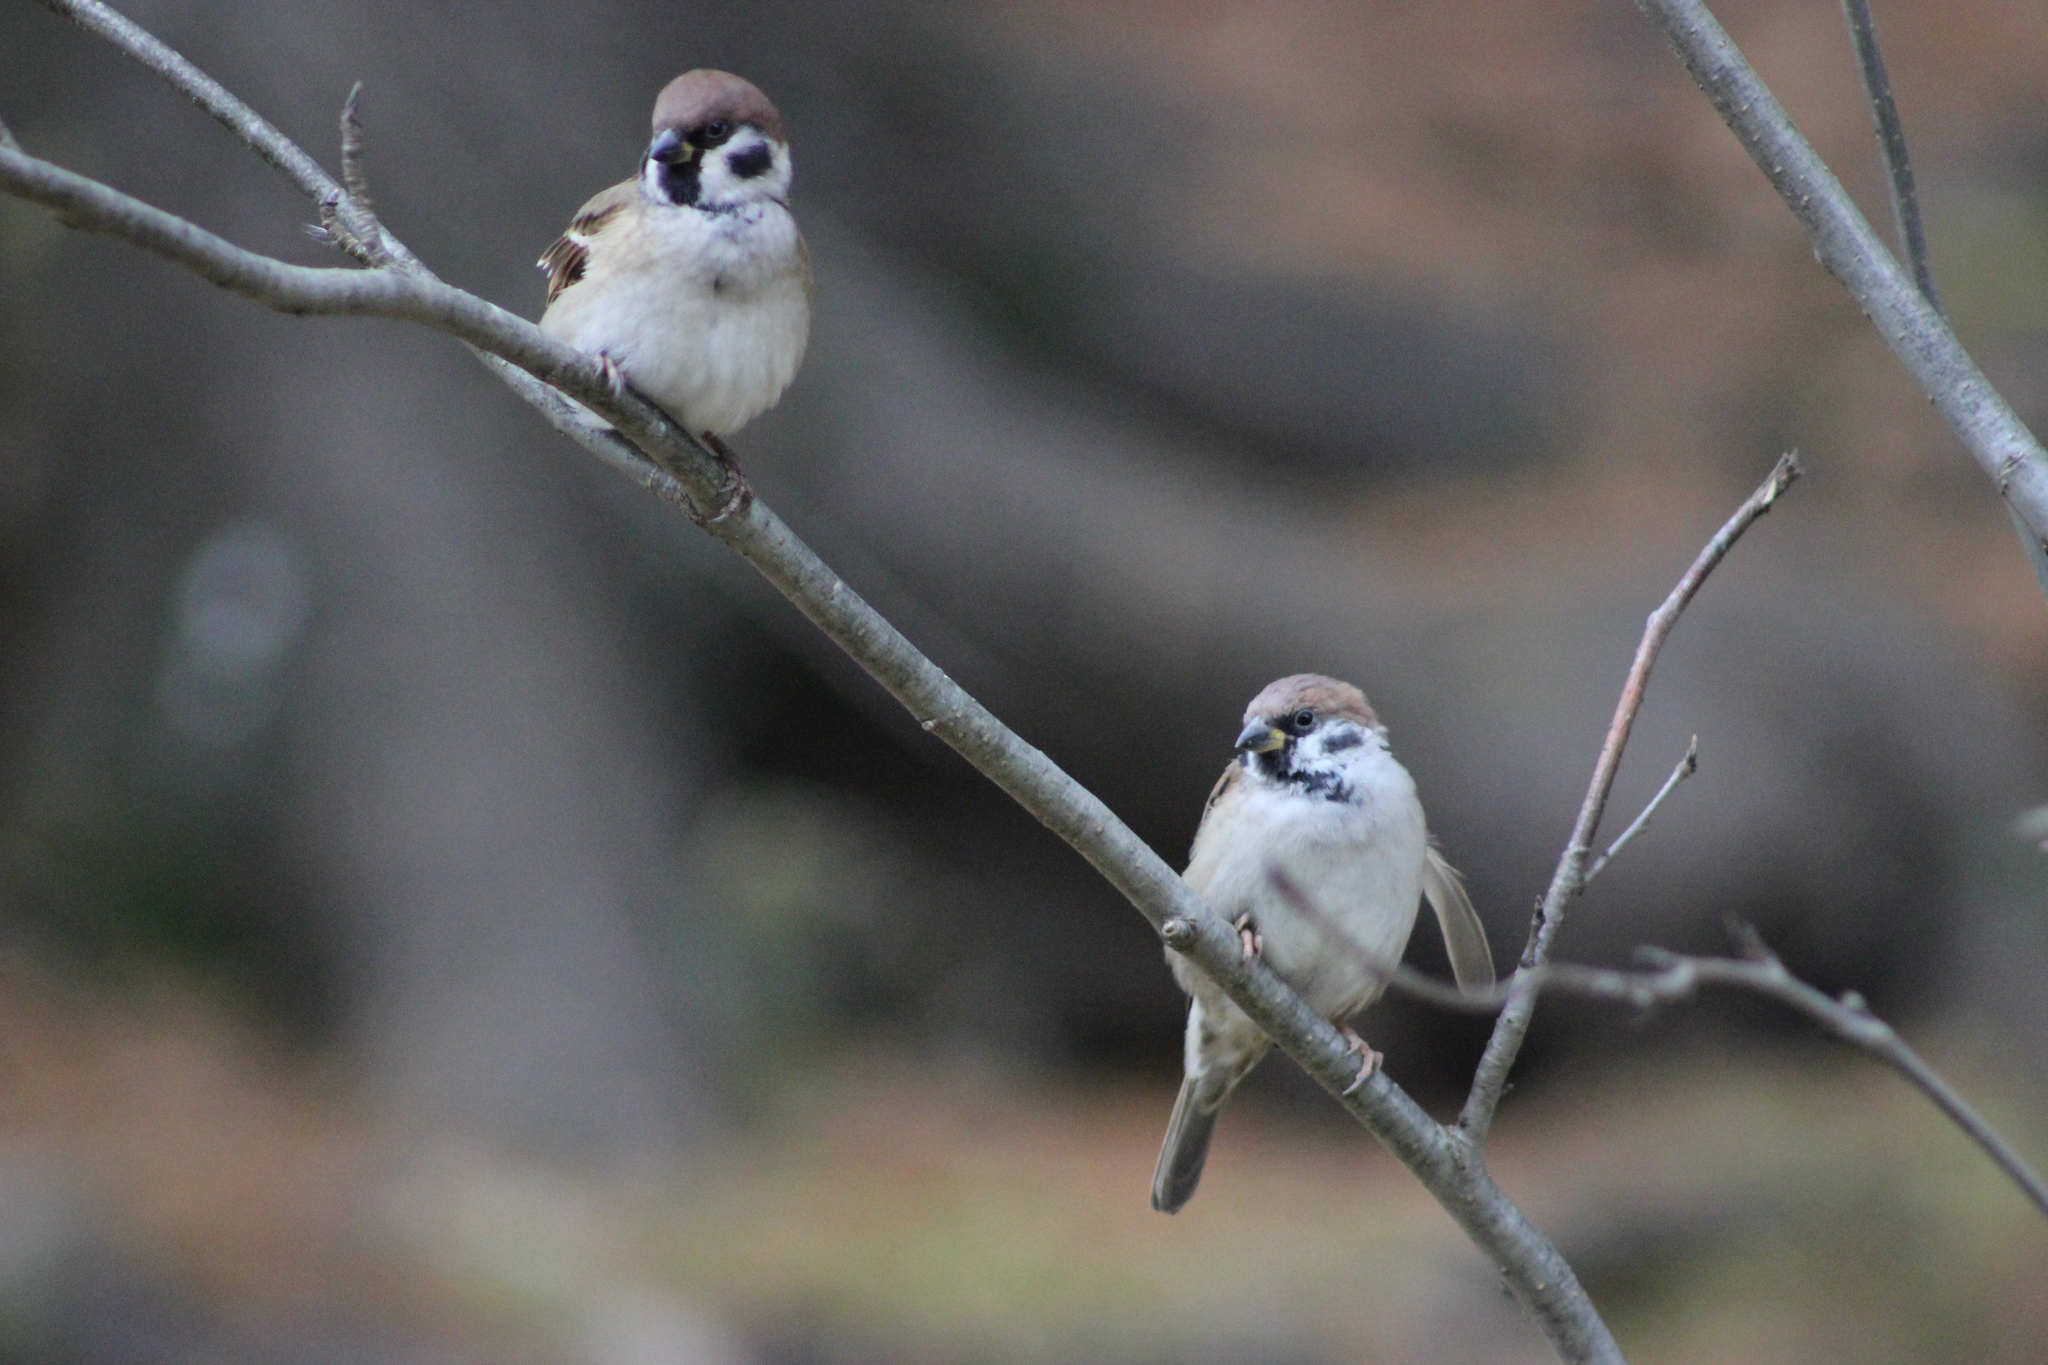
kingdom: Animalia
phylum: Chordata
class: Aves
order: Passeriformes
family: Passeridae
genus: Passer
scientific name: Passer montanus
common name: Eurasian tree sparrow
